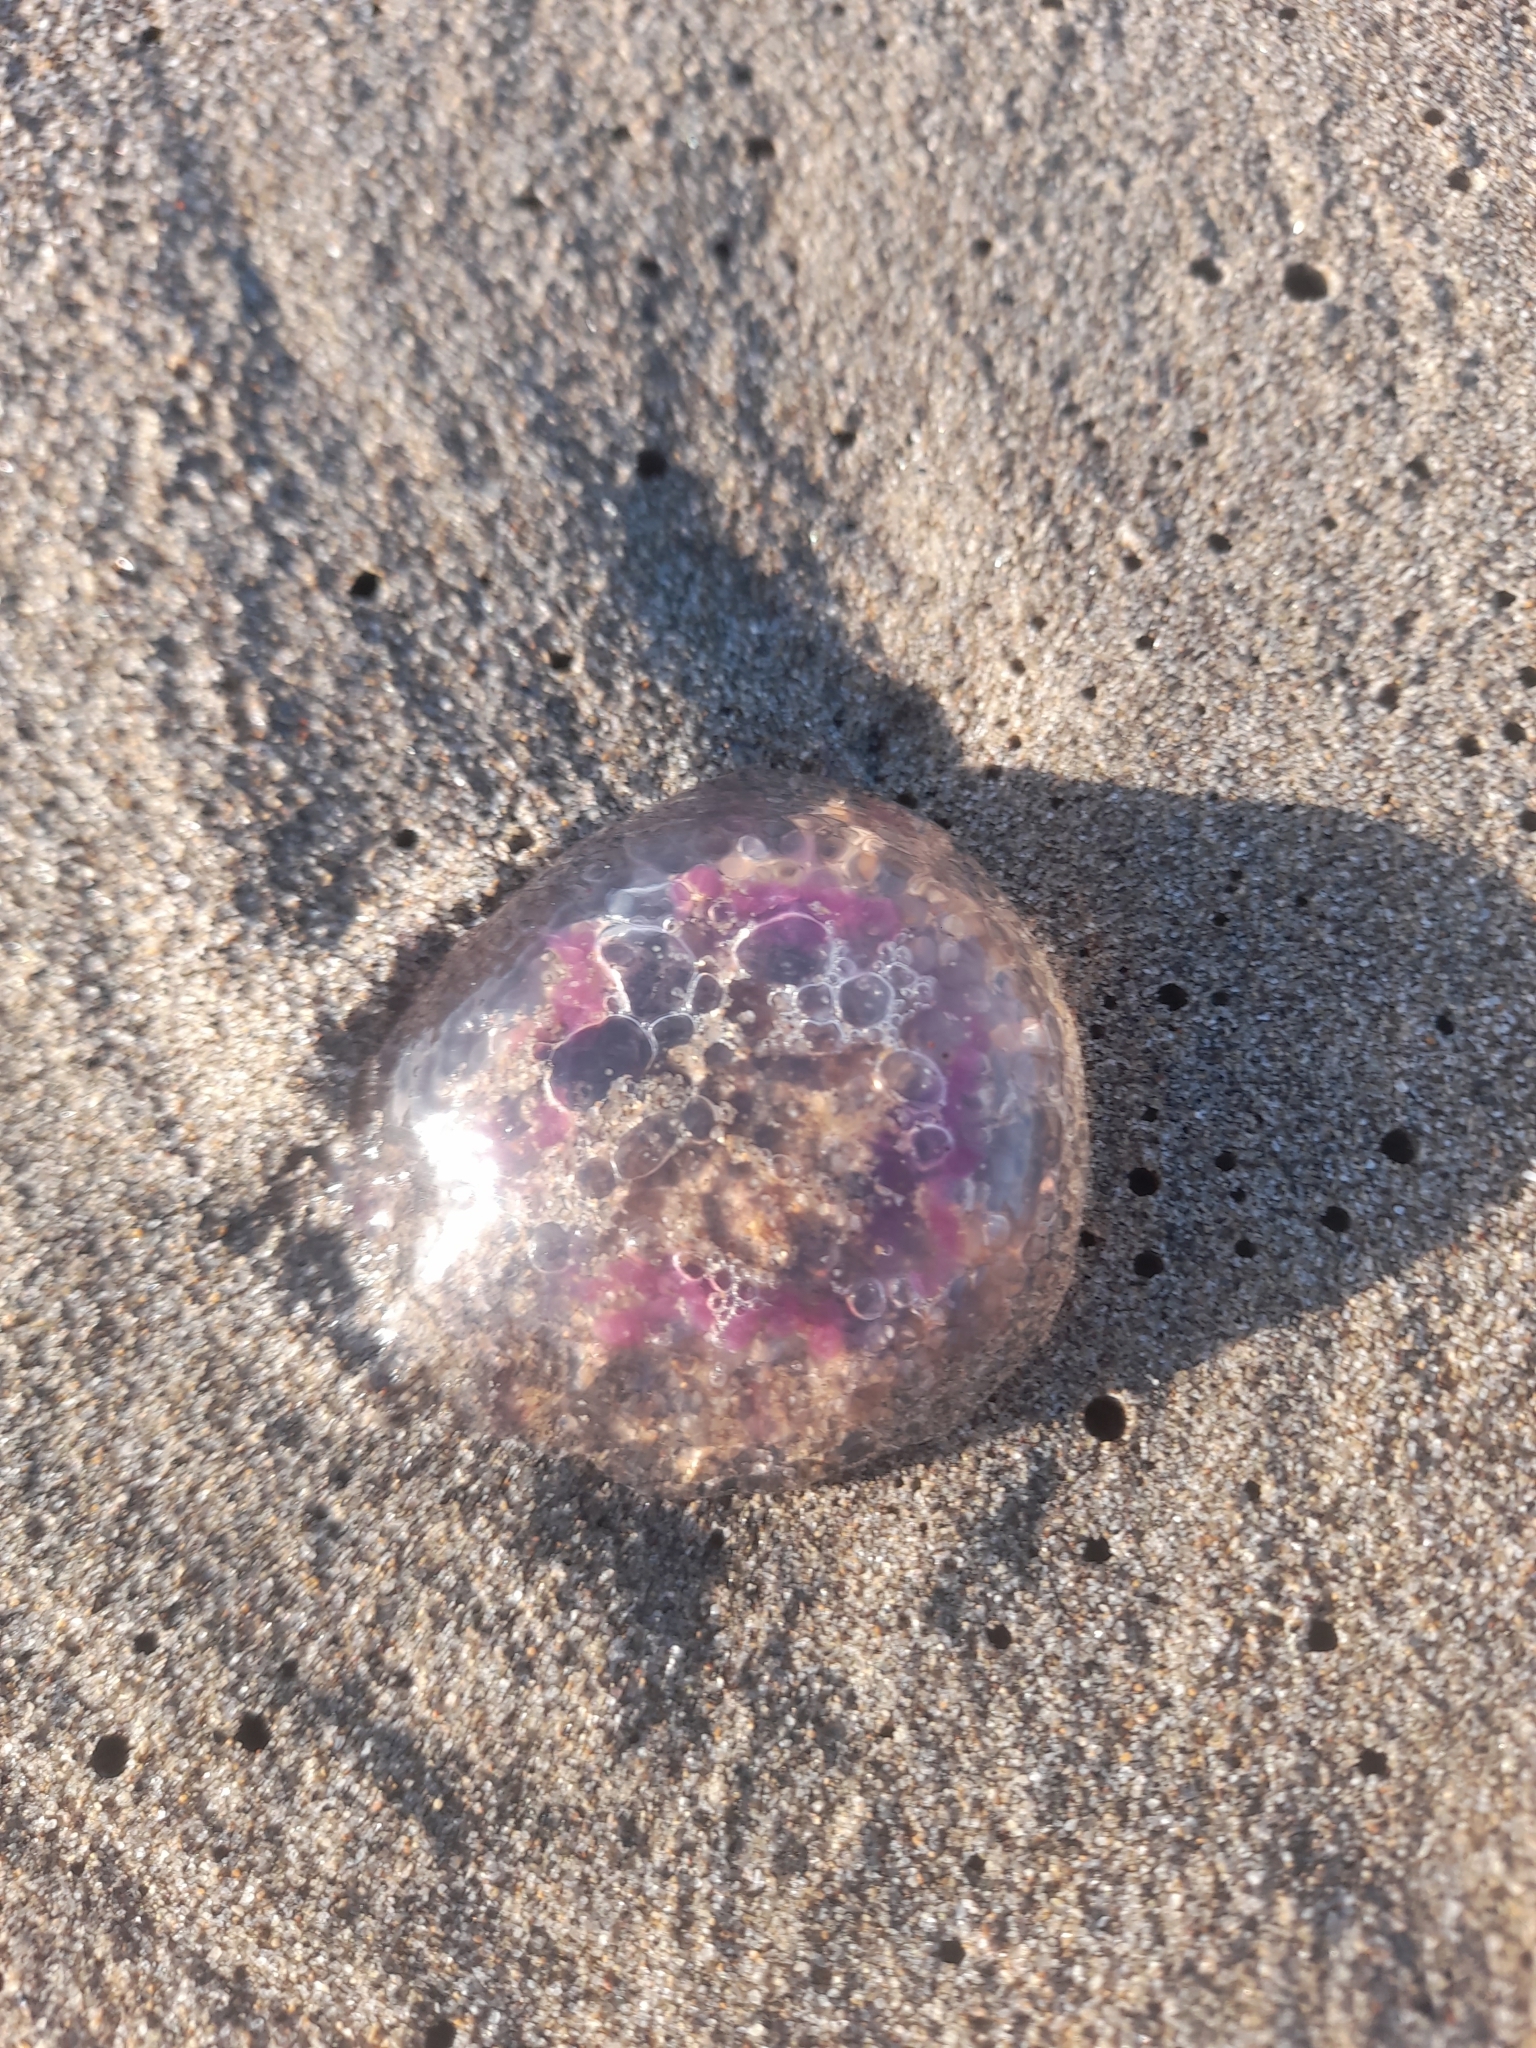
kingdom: Animalia
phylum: Cnidaria
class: Scyphozoa
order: Semaeostomeae
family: Pelagiidae
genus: Pelagia
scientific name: Pelagia noctiluca
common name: Mauve stinger
